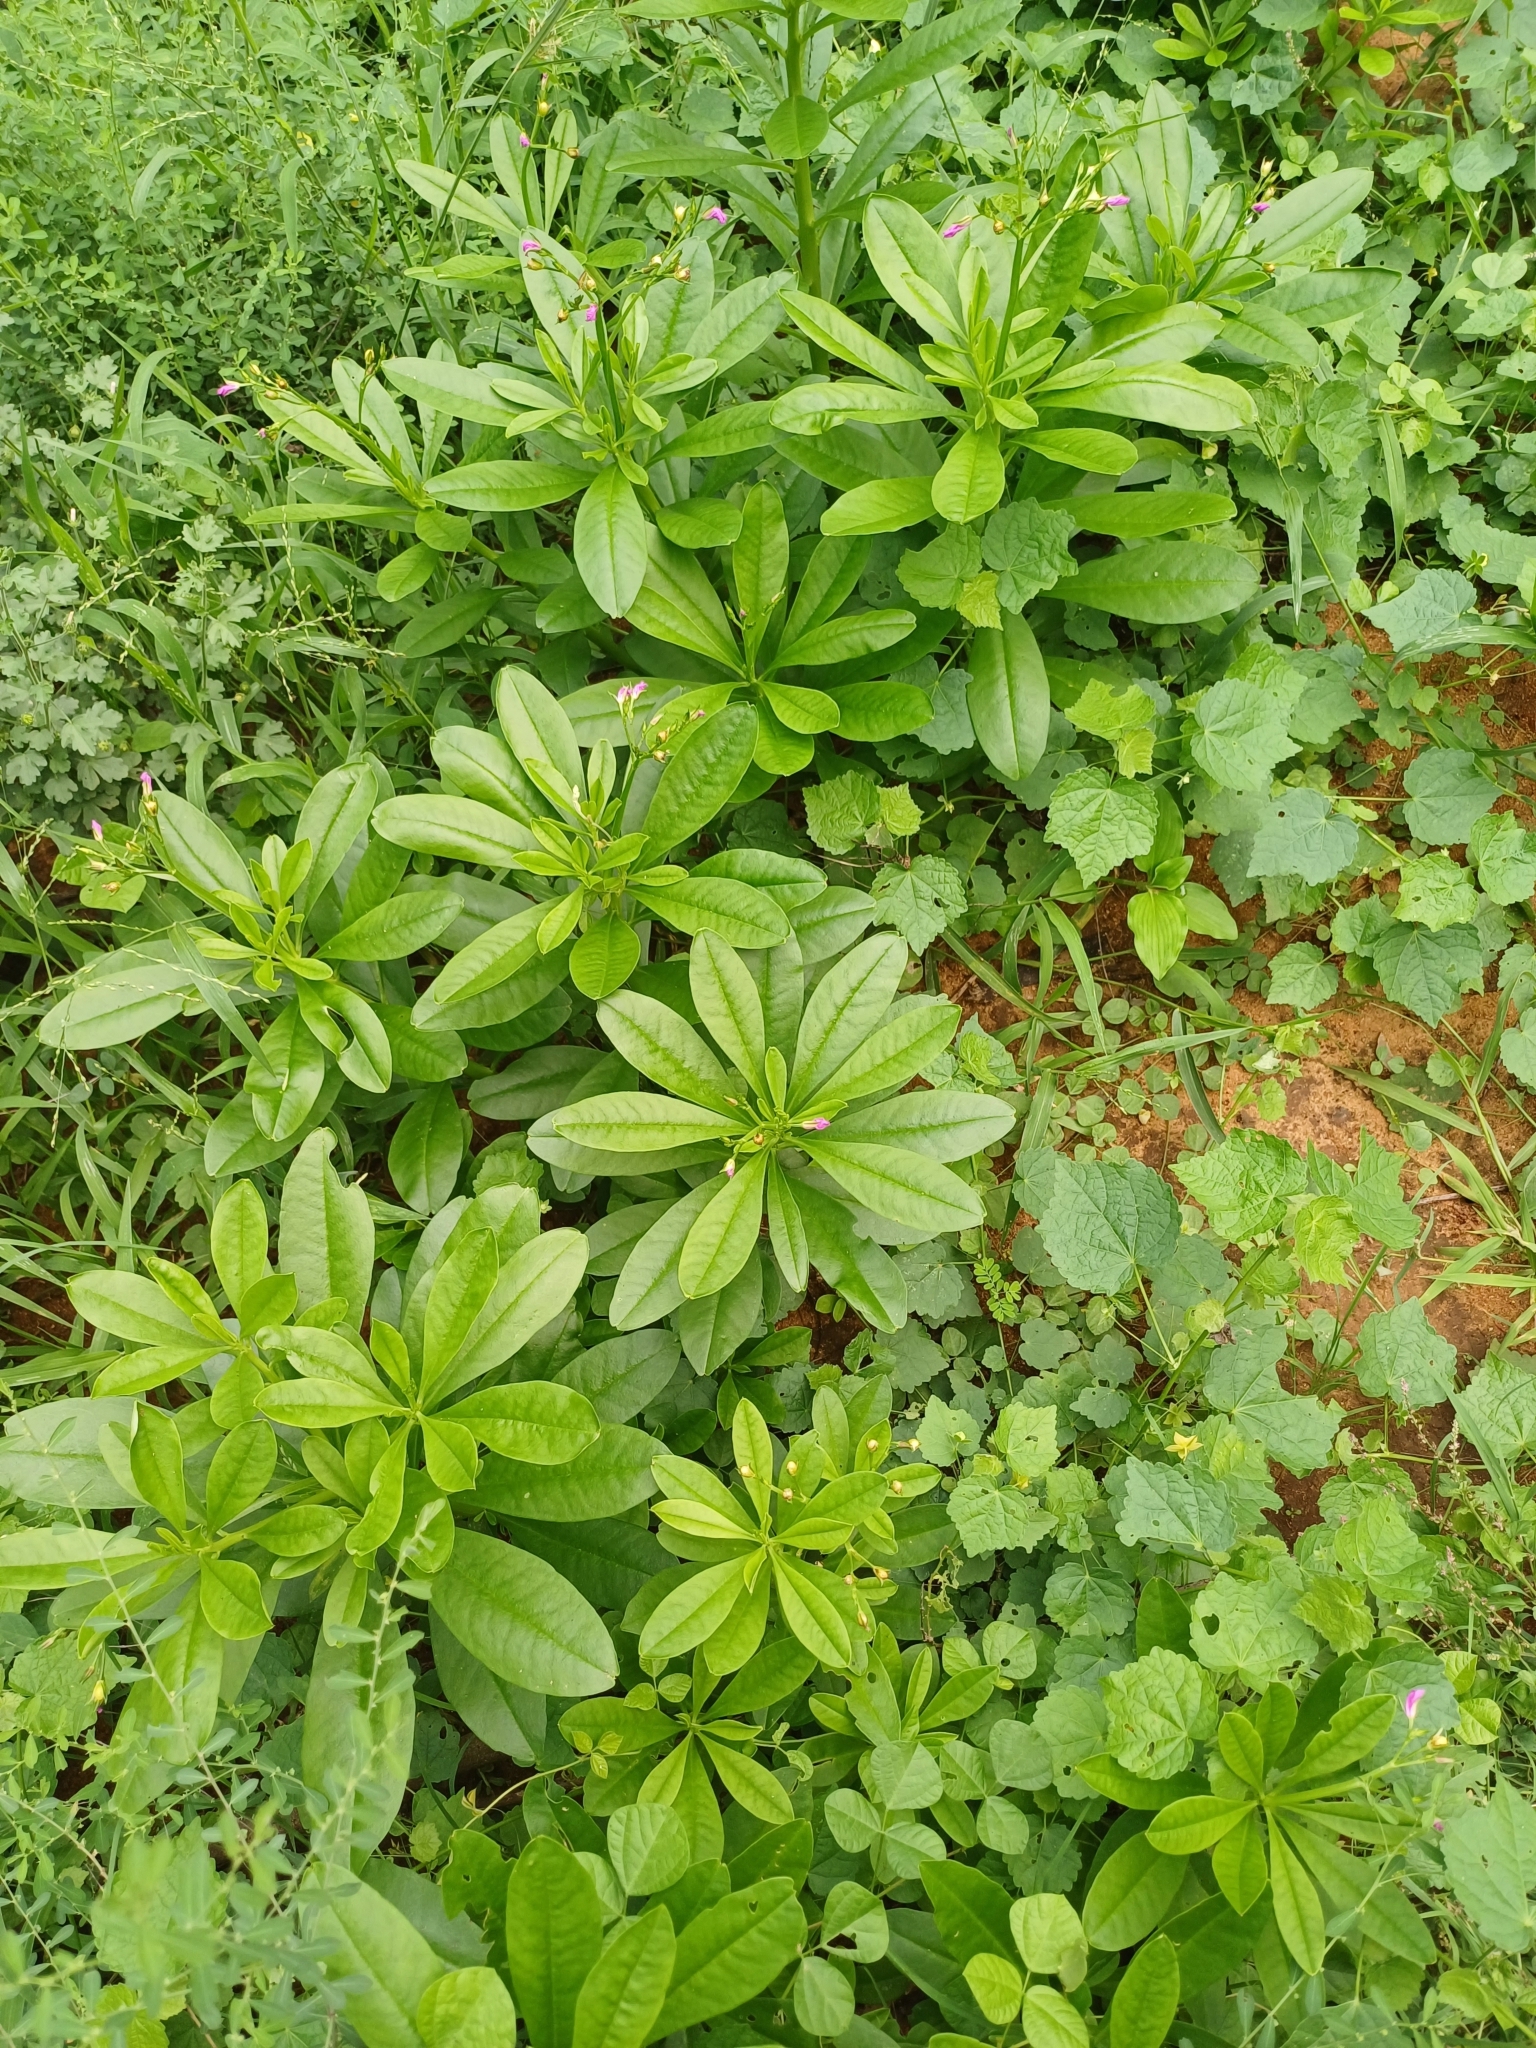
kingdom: Plantae
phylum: Tracheophyta
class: Magnoliopsida
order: Caryophyllales
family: Talinaceae
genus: Talinum
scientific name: Talinum fruticosum
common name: Verdolaga-francesa
